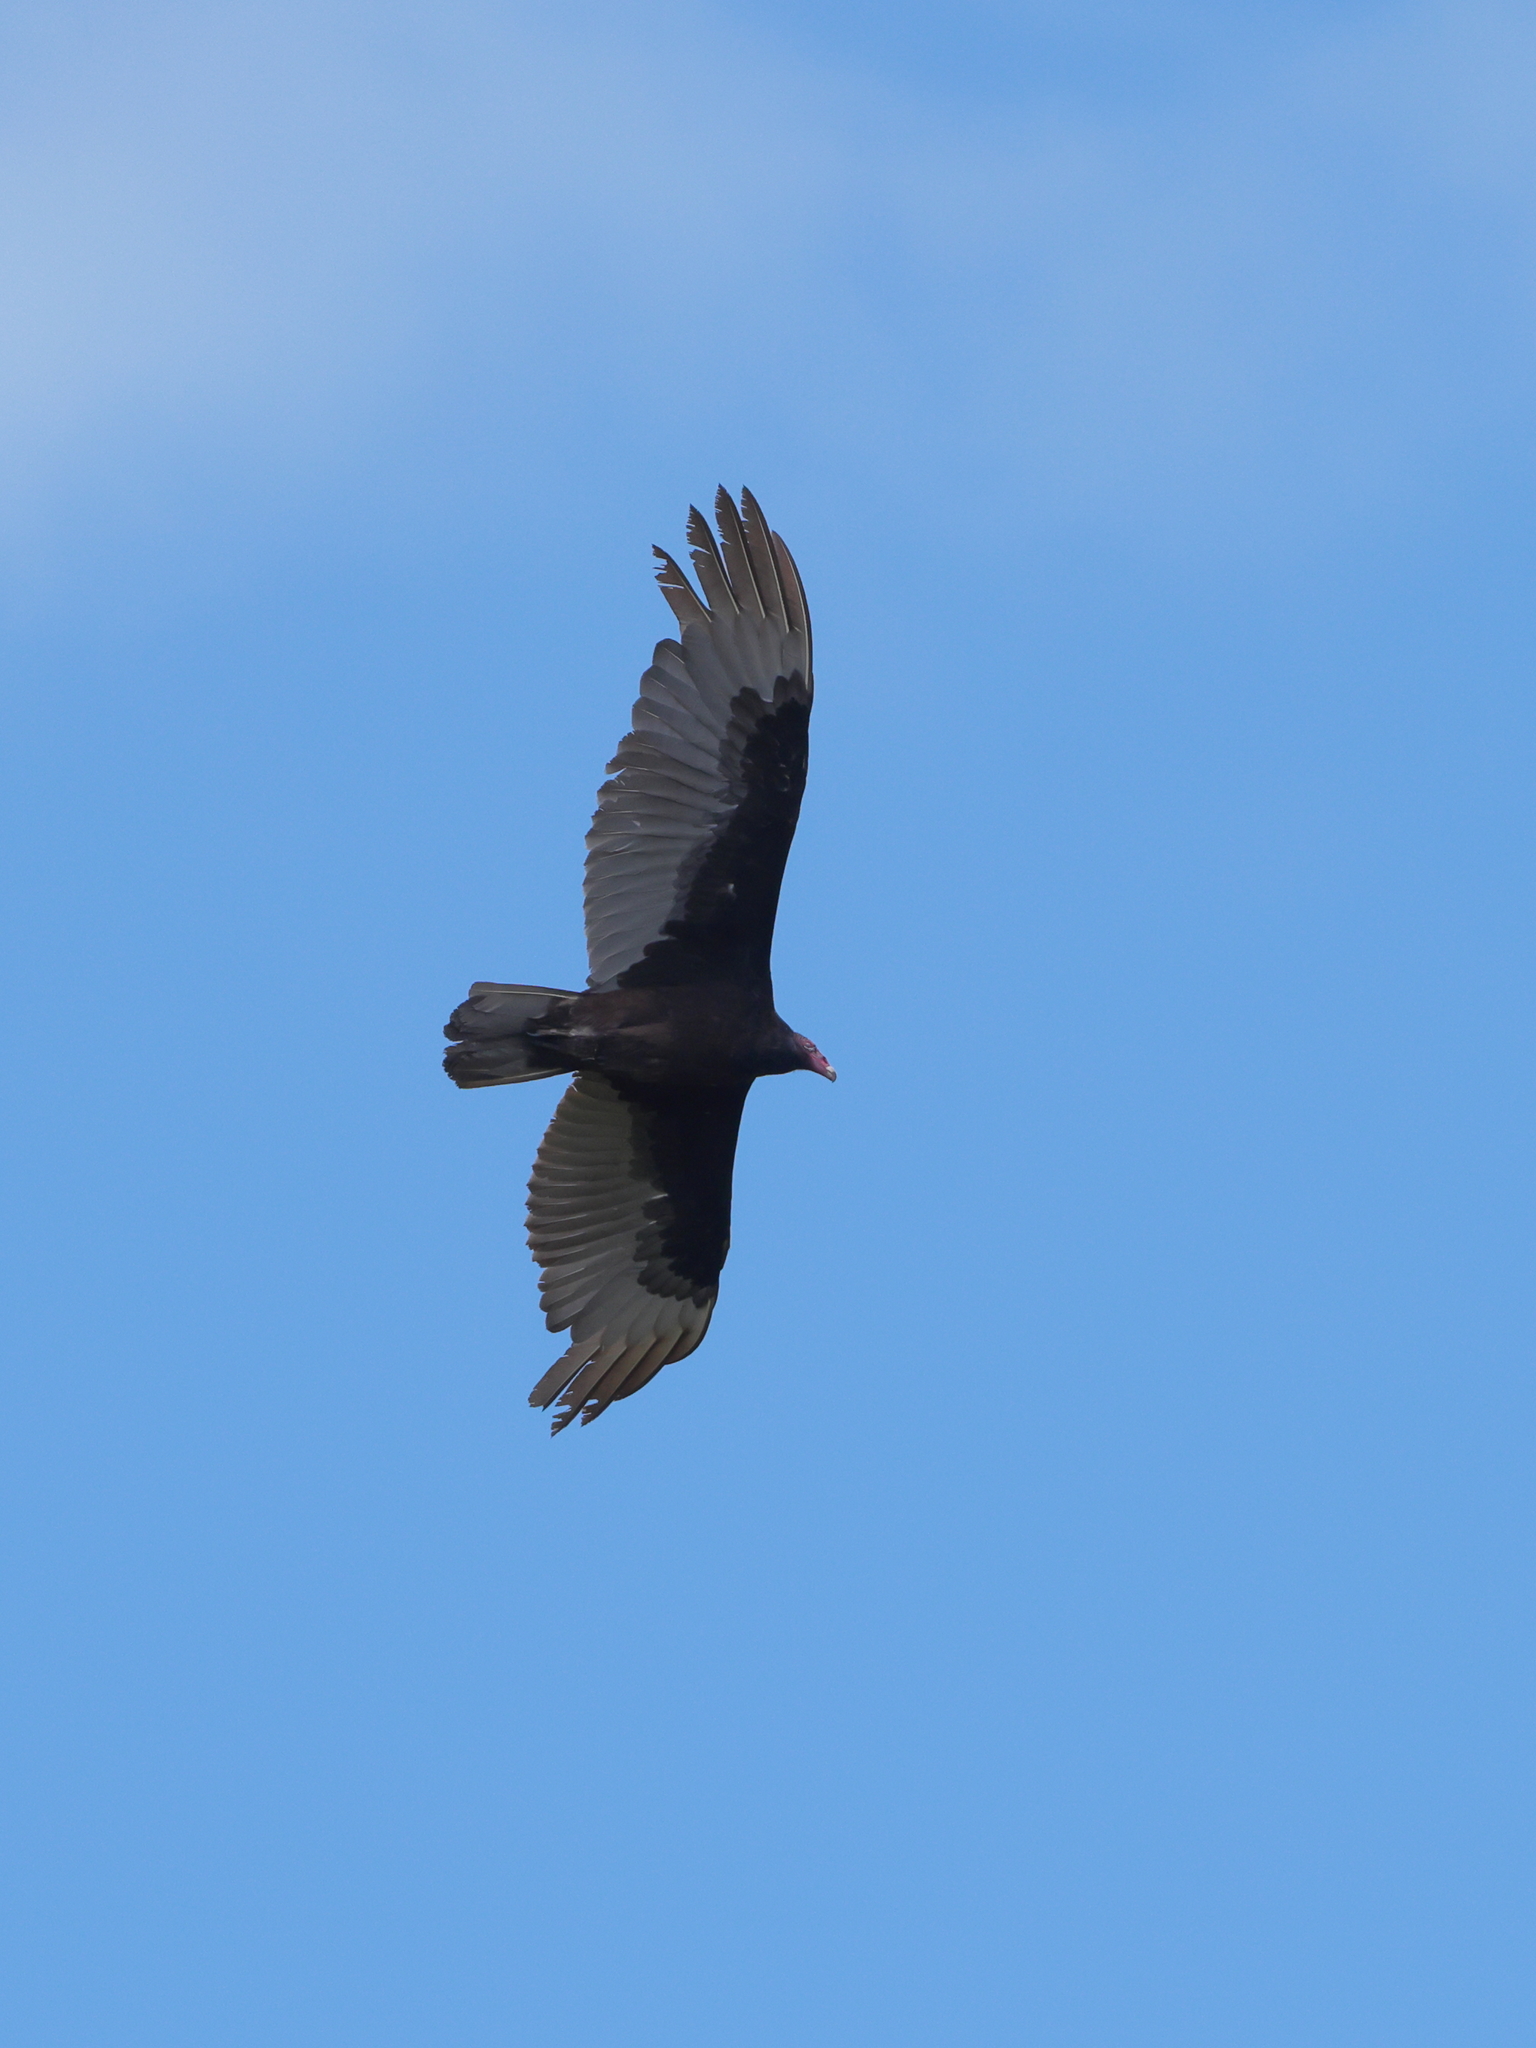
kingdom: Animalia
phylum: Chordata
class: Aves
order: Accipitriformes
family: Cathartidae
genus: Cathartes
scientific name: Cathartes aura
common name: Turkey vulture
